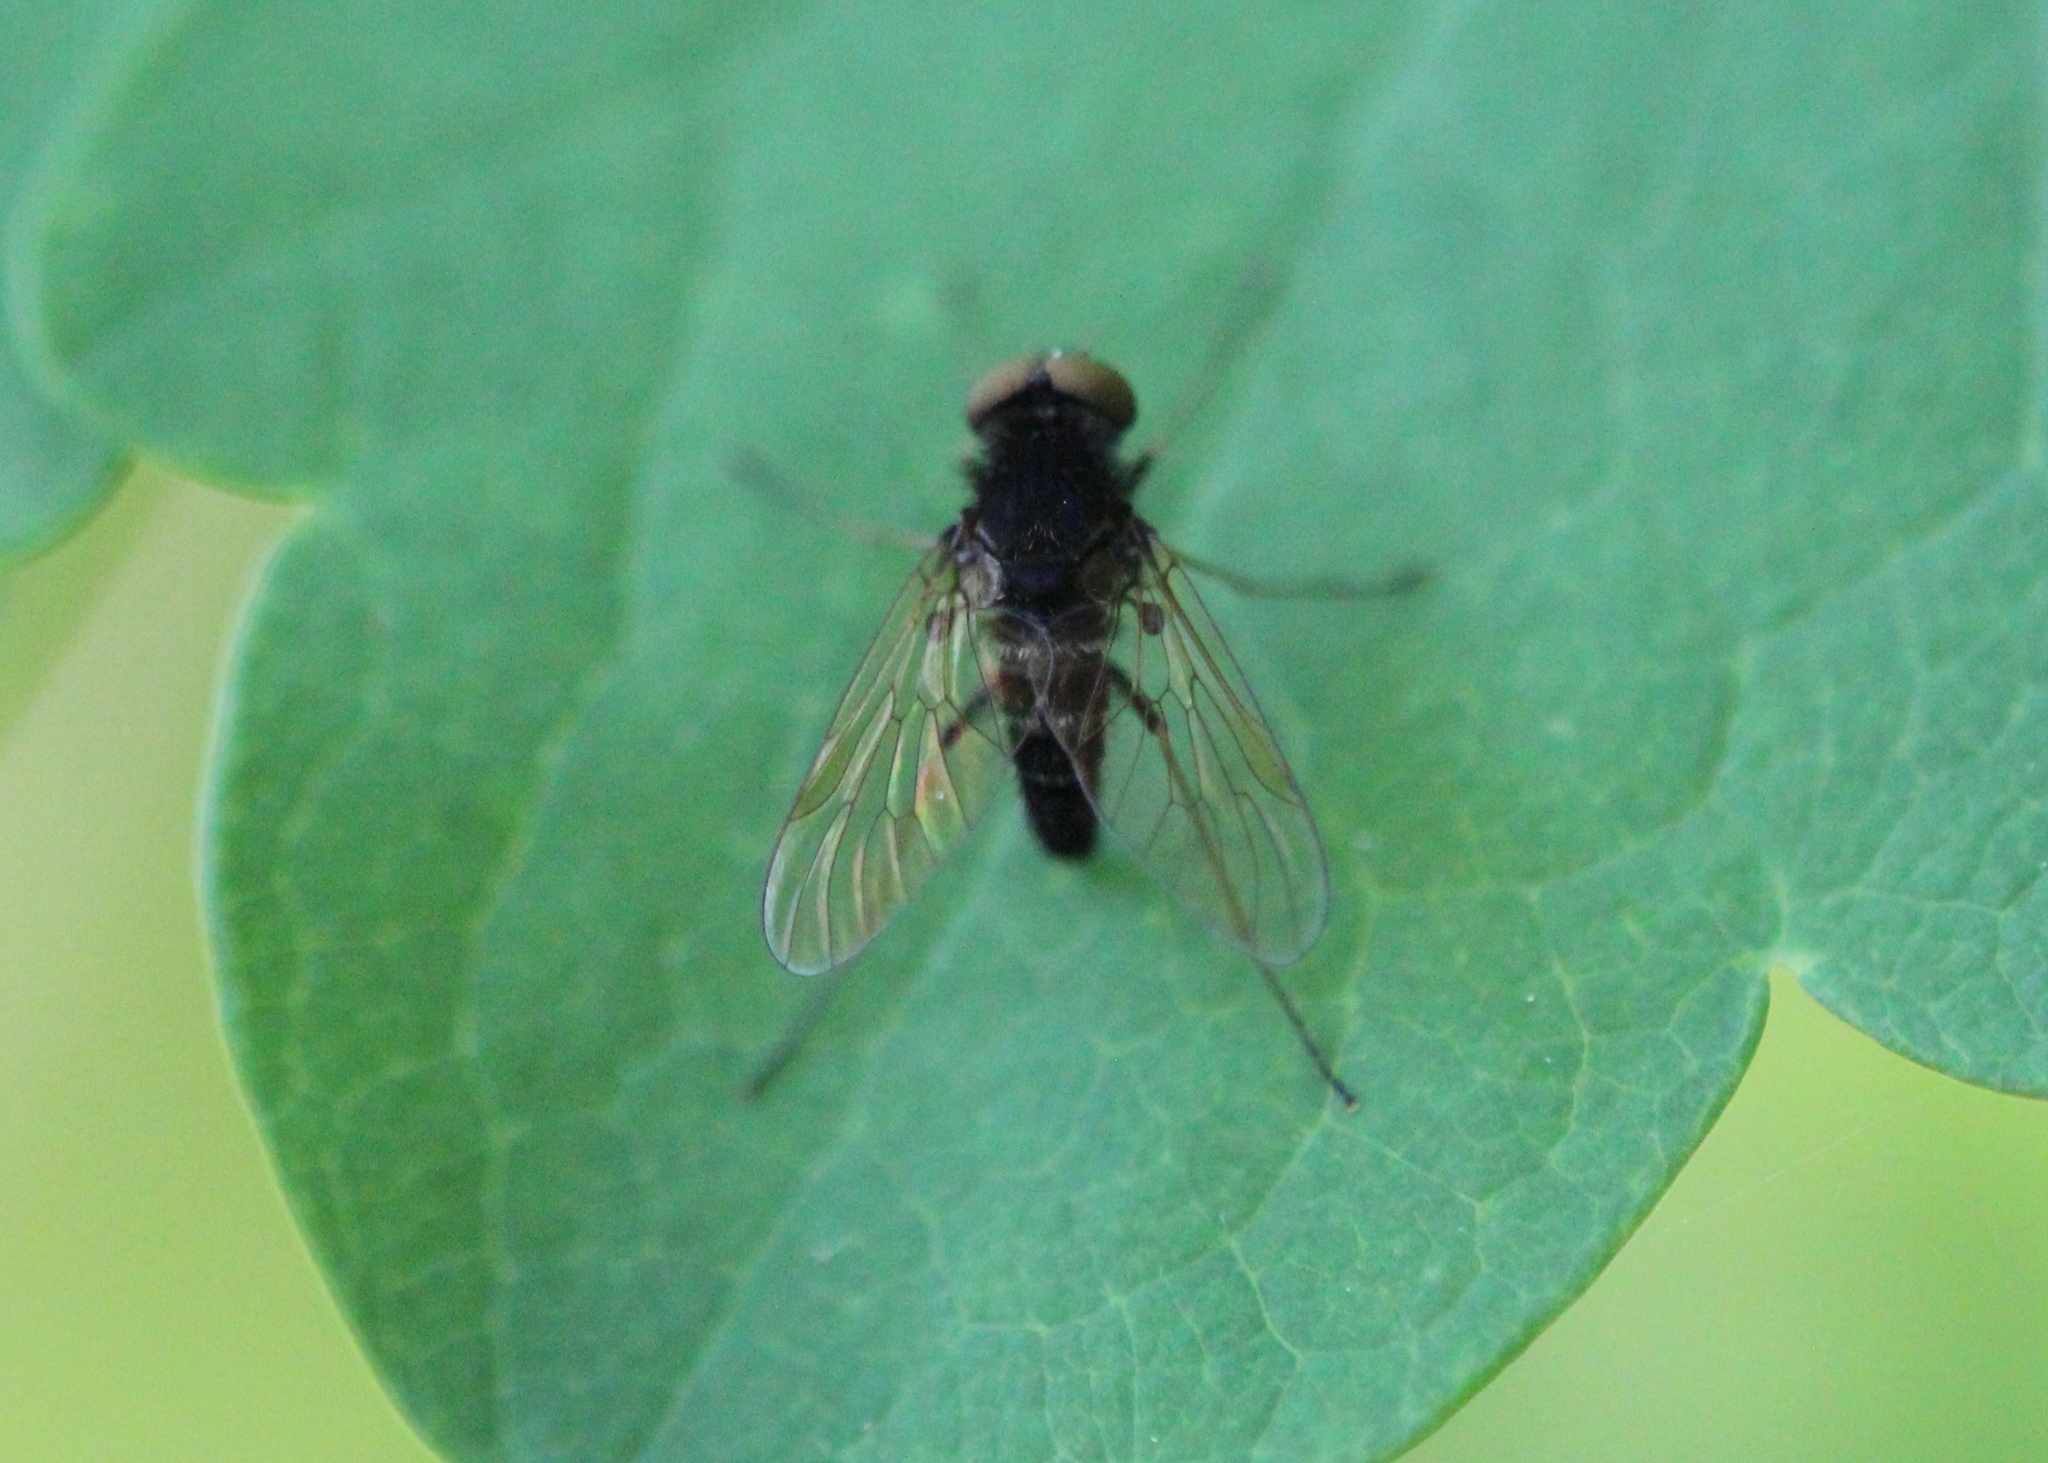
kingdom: Animalia
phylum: Arthropoda
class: Insecta
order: Diptera
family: Rhagionidae
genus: Chrysopilus
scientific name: Chrysopilus proximus
